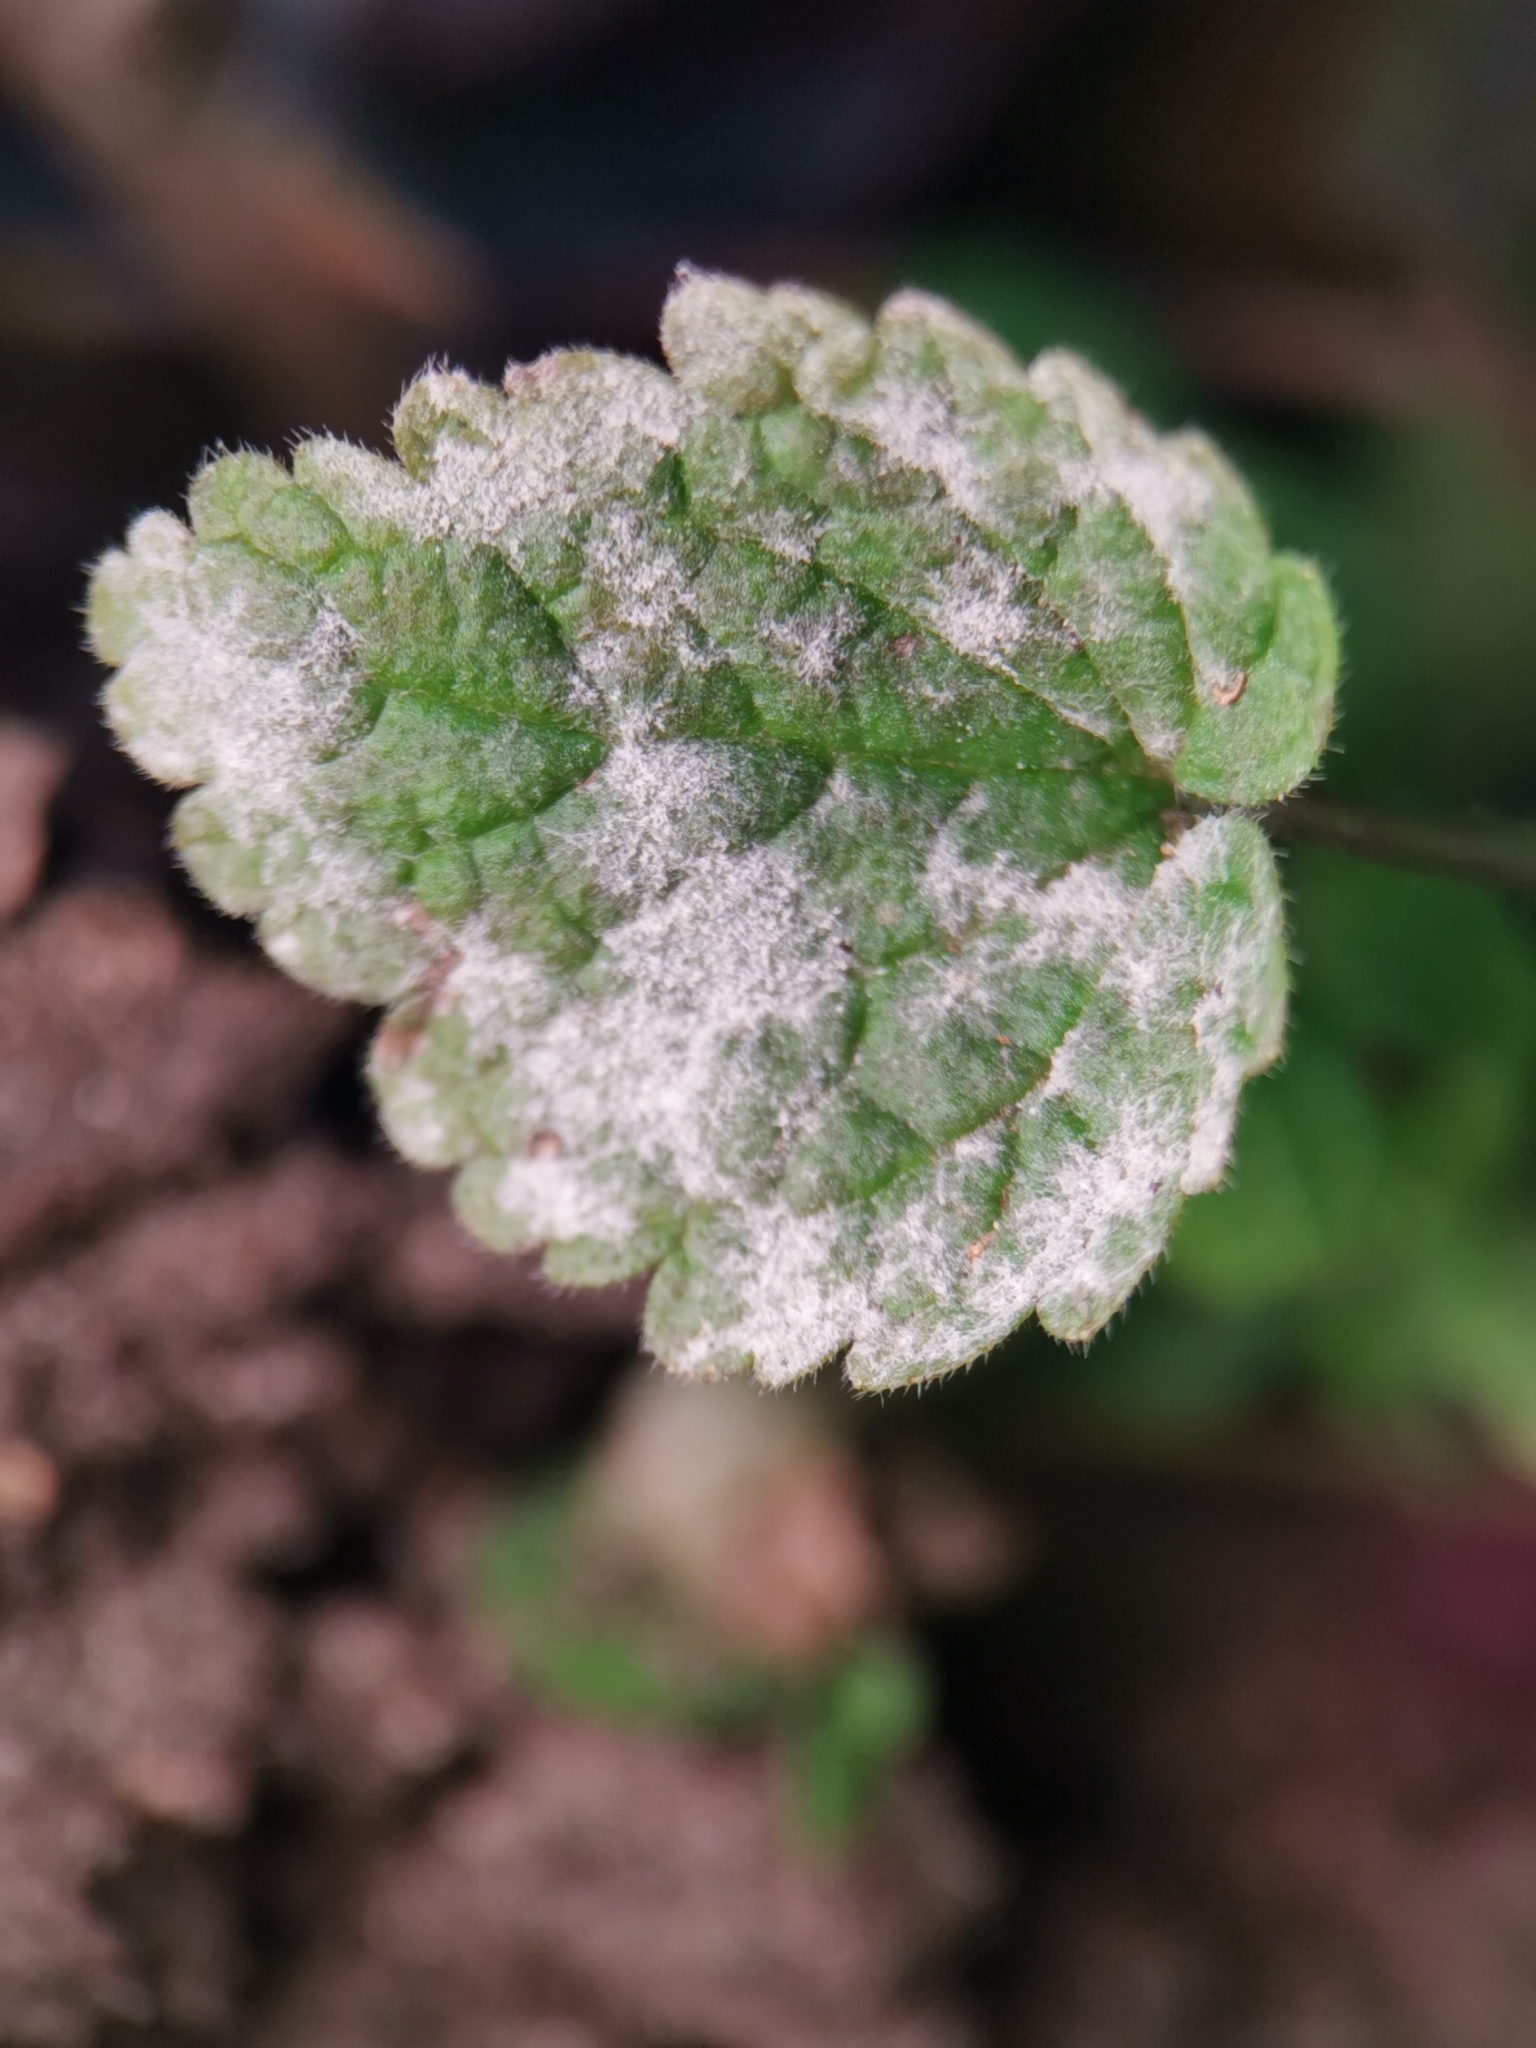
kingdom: Fungi
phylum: Ascomycota
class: Leotiomycetes
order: Helotiales
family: Erysiphaceae
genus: Neoerysiphe
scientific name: Neoerysiphe galeopsidis
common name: Mint mildew
